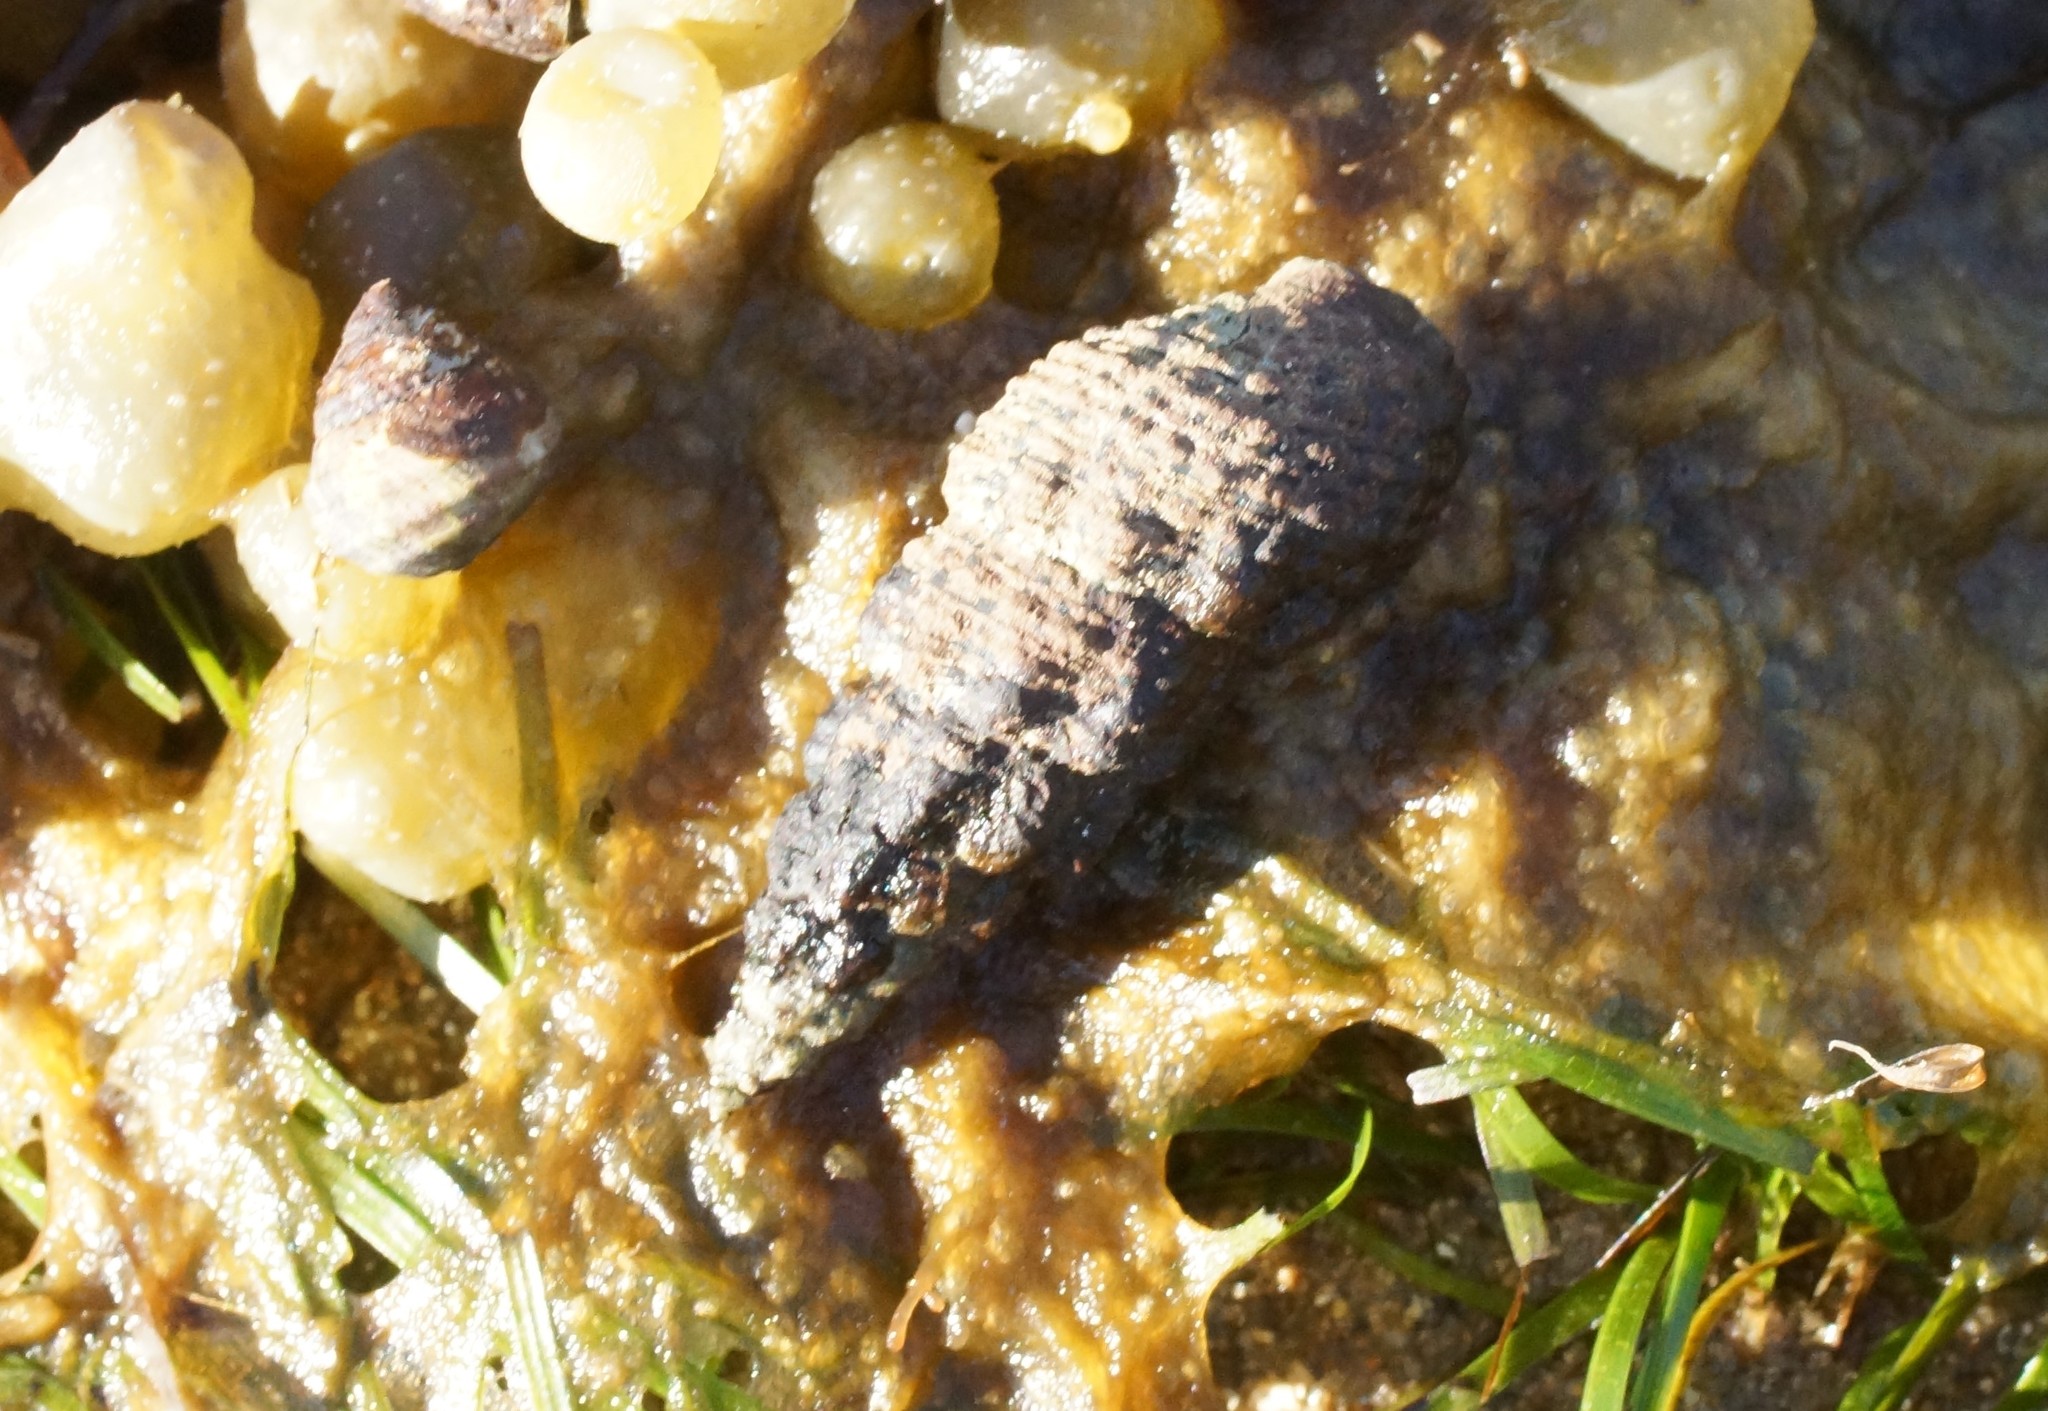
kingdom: Animalia
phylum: Mollusca
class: Gastropoda
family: Batillariidae
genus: Batillaria
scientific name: Batillaria australis
